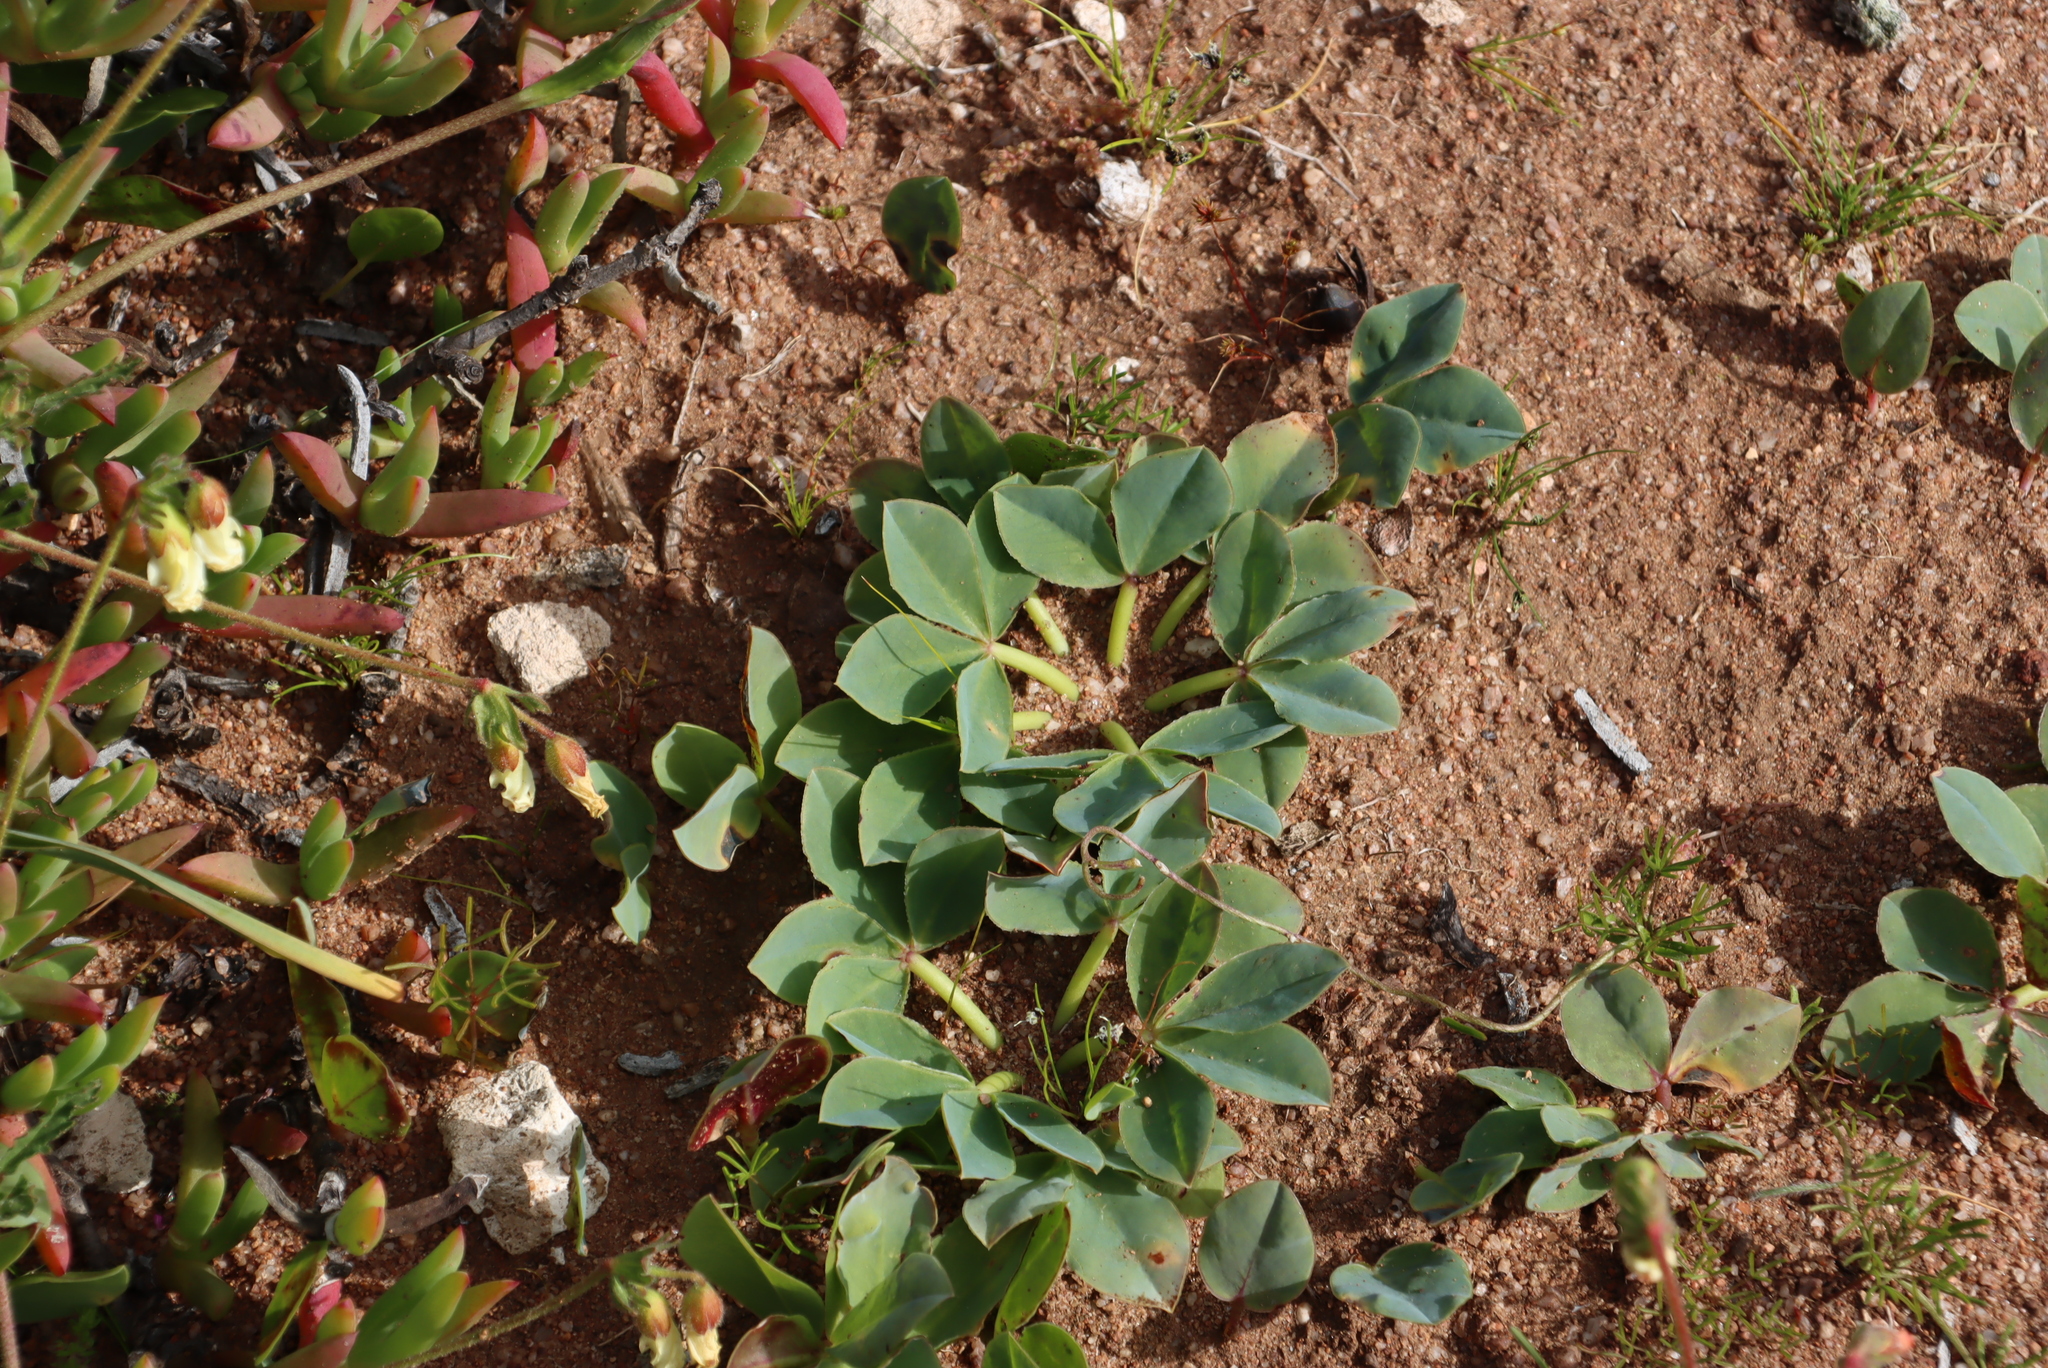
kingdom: Plantae
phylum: Tracheophyta
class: Magnoliopsida
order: Oxalidales
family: Oxalidaceae
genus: Oxalis
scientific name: Oxalis flava
